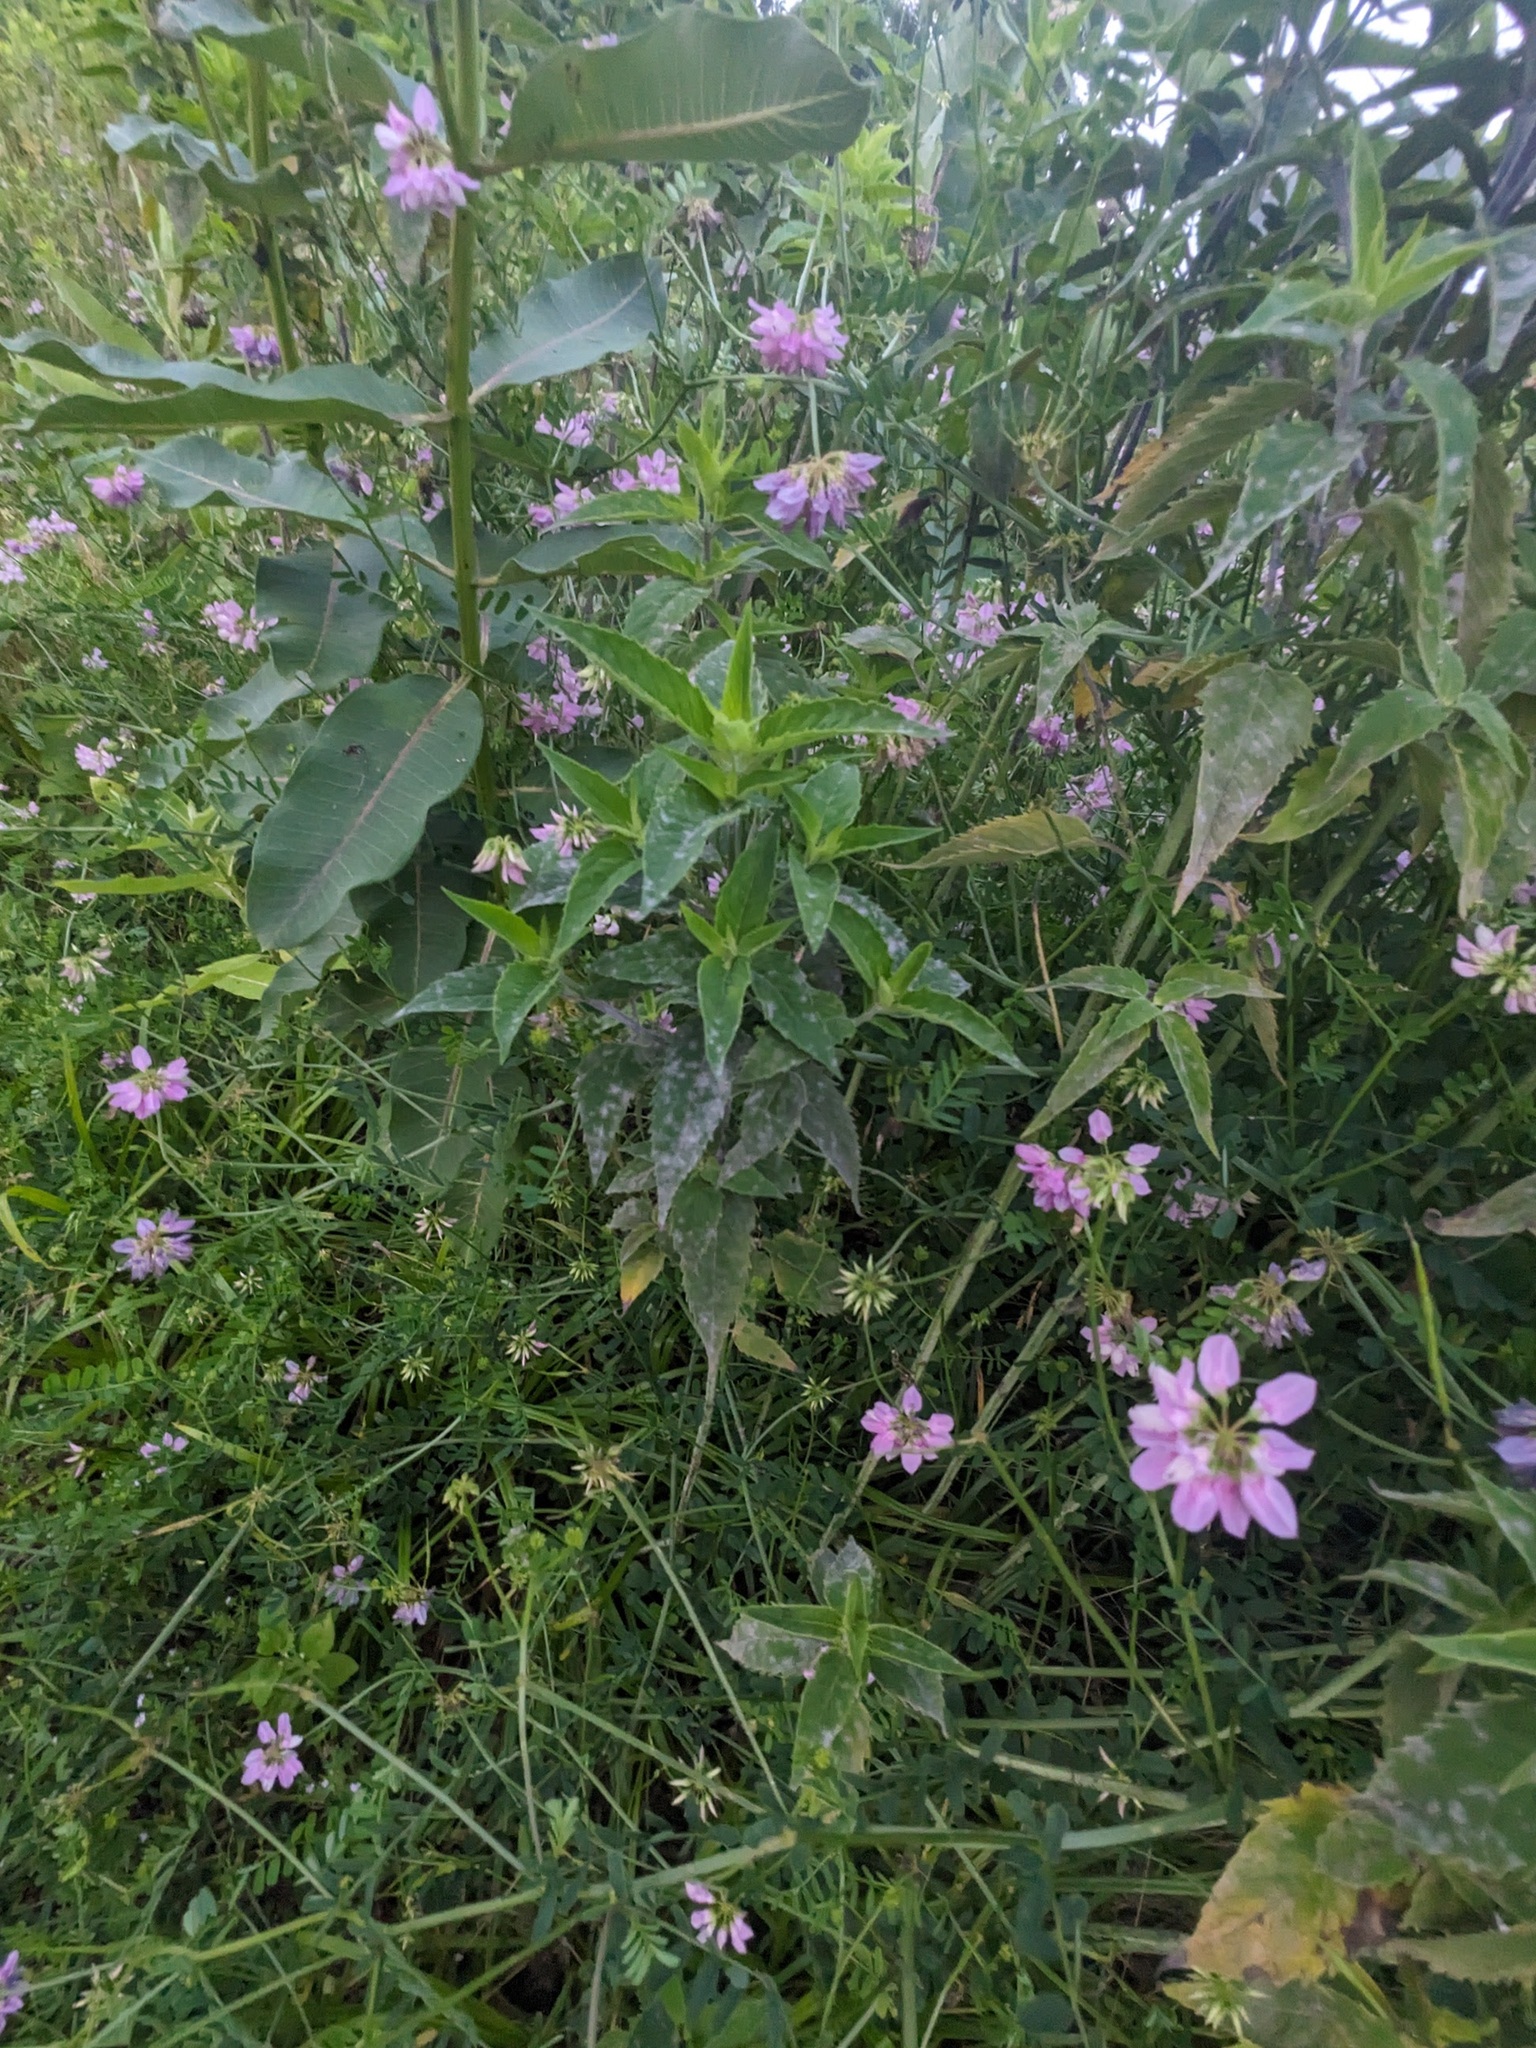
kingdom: Plantae
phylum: Tracheophyta
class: Magnoliopsida
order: Fabales
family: Fabaceae
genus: Coronilla
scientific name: Coronilla varia
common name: Crownvetch
